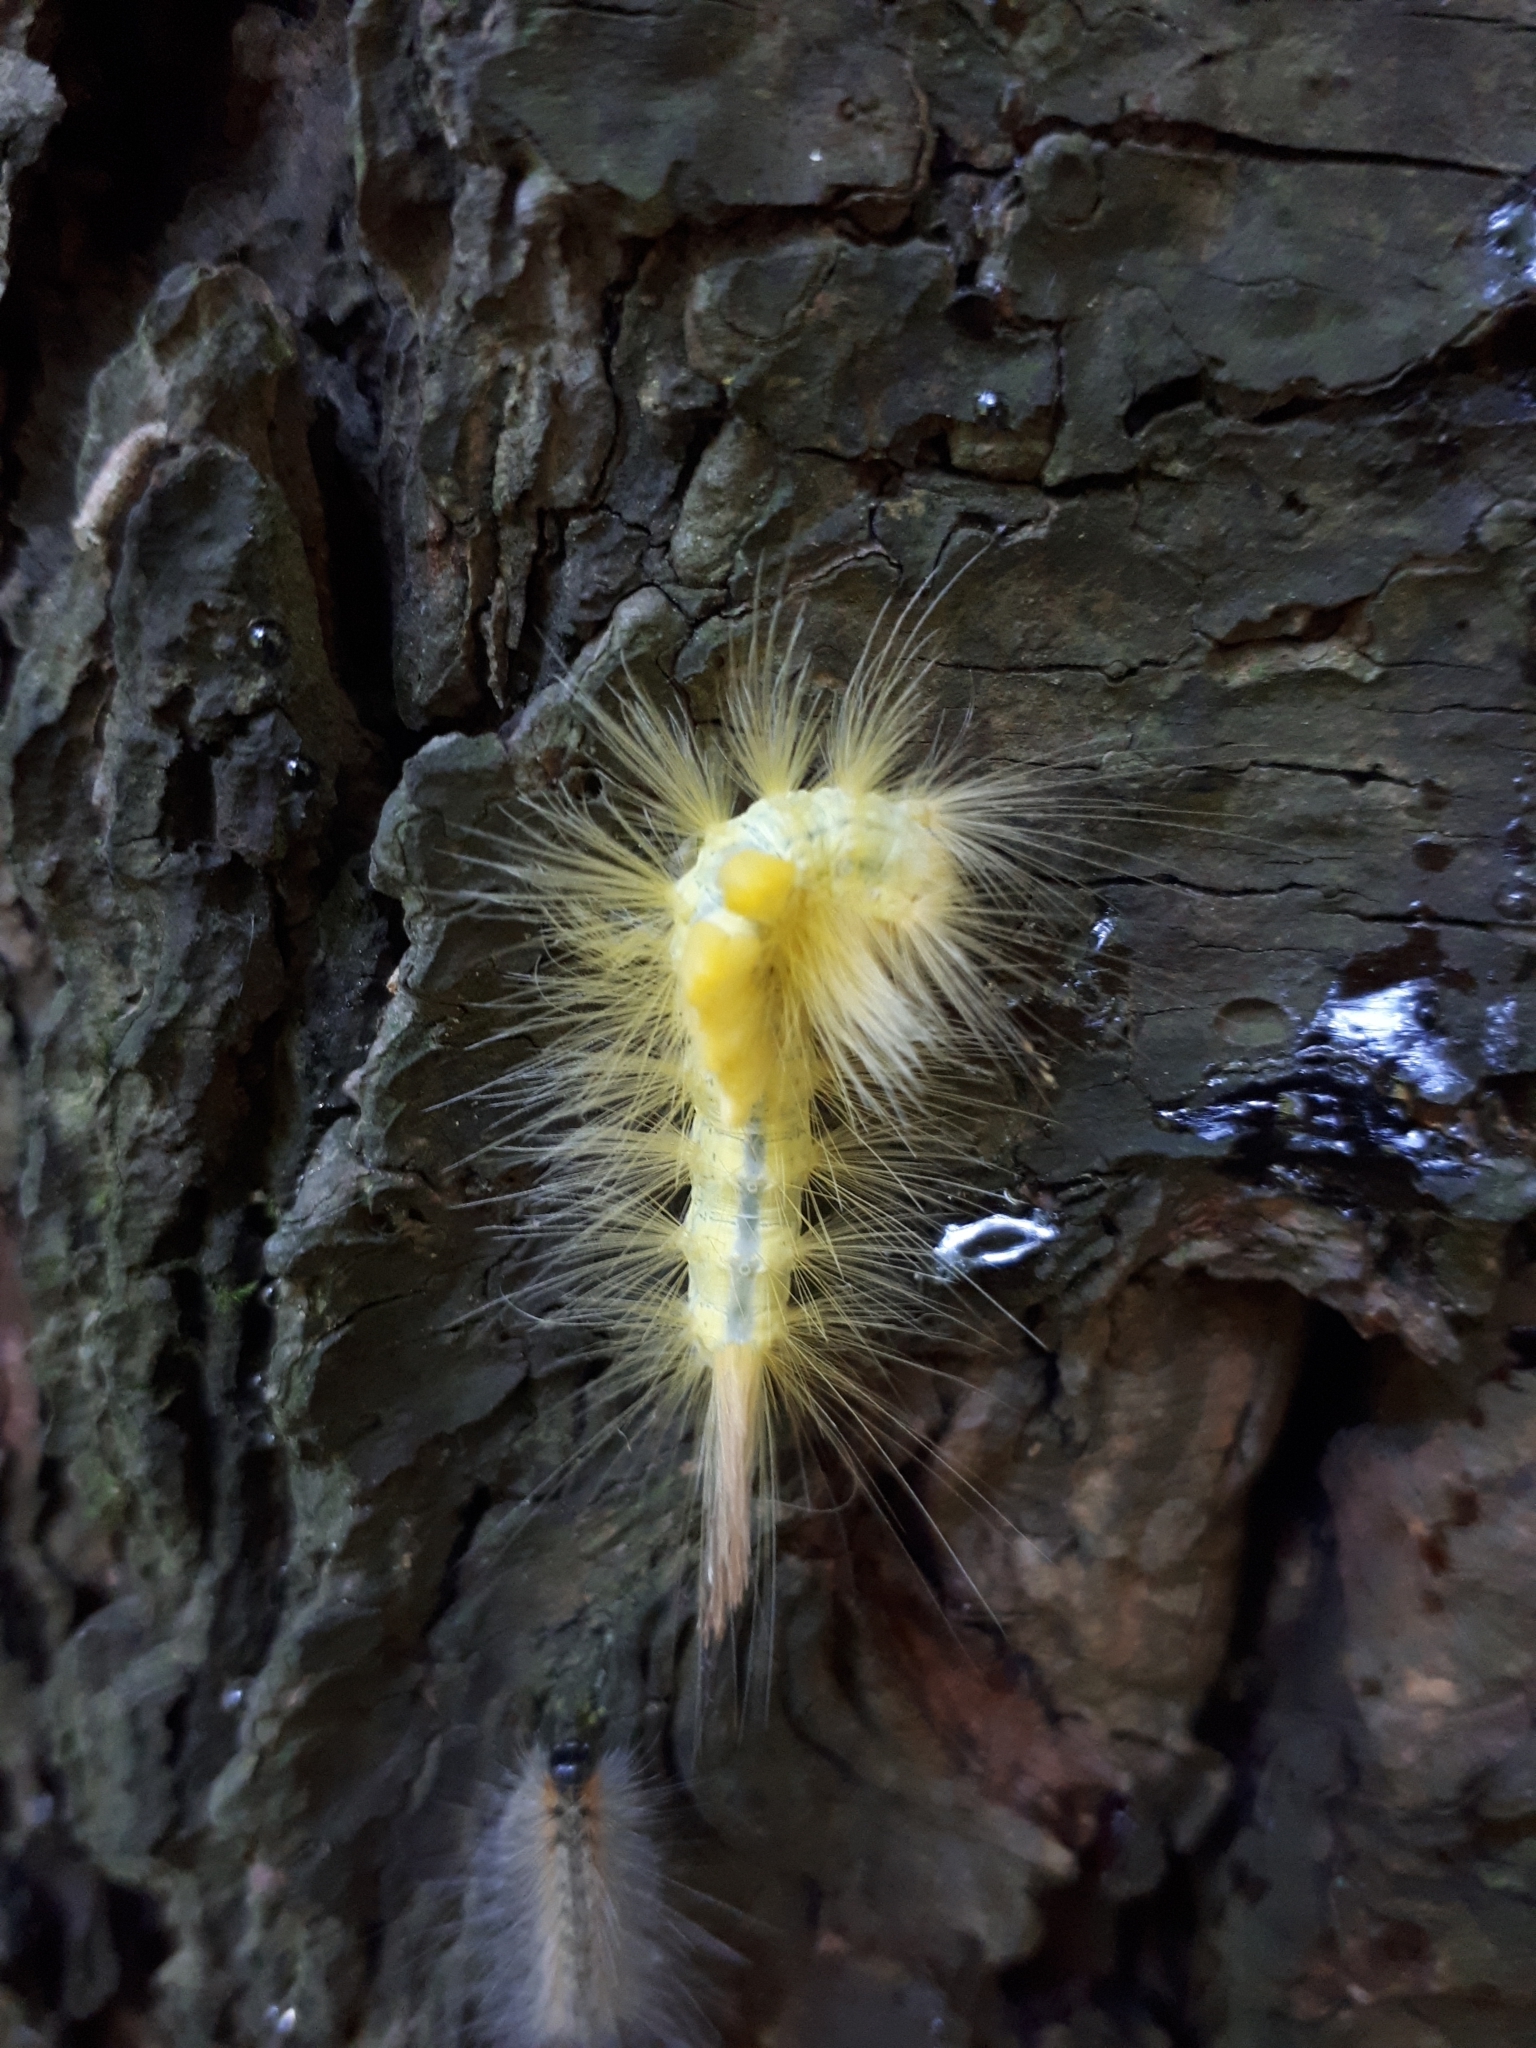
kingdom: Animalia
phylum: Arthropoda
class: Insecta
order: Lepidoptera
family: Erebidae
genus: Orgyia
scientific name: Orgyia definita
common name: Definite tussock moth
